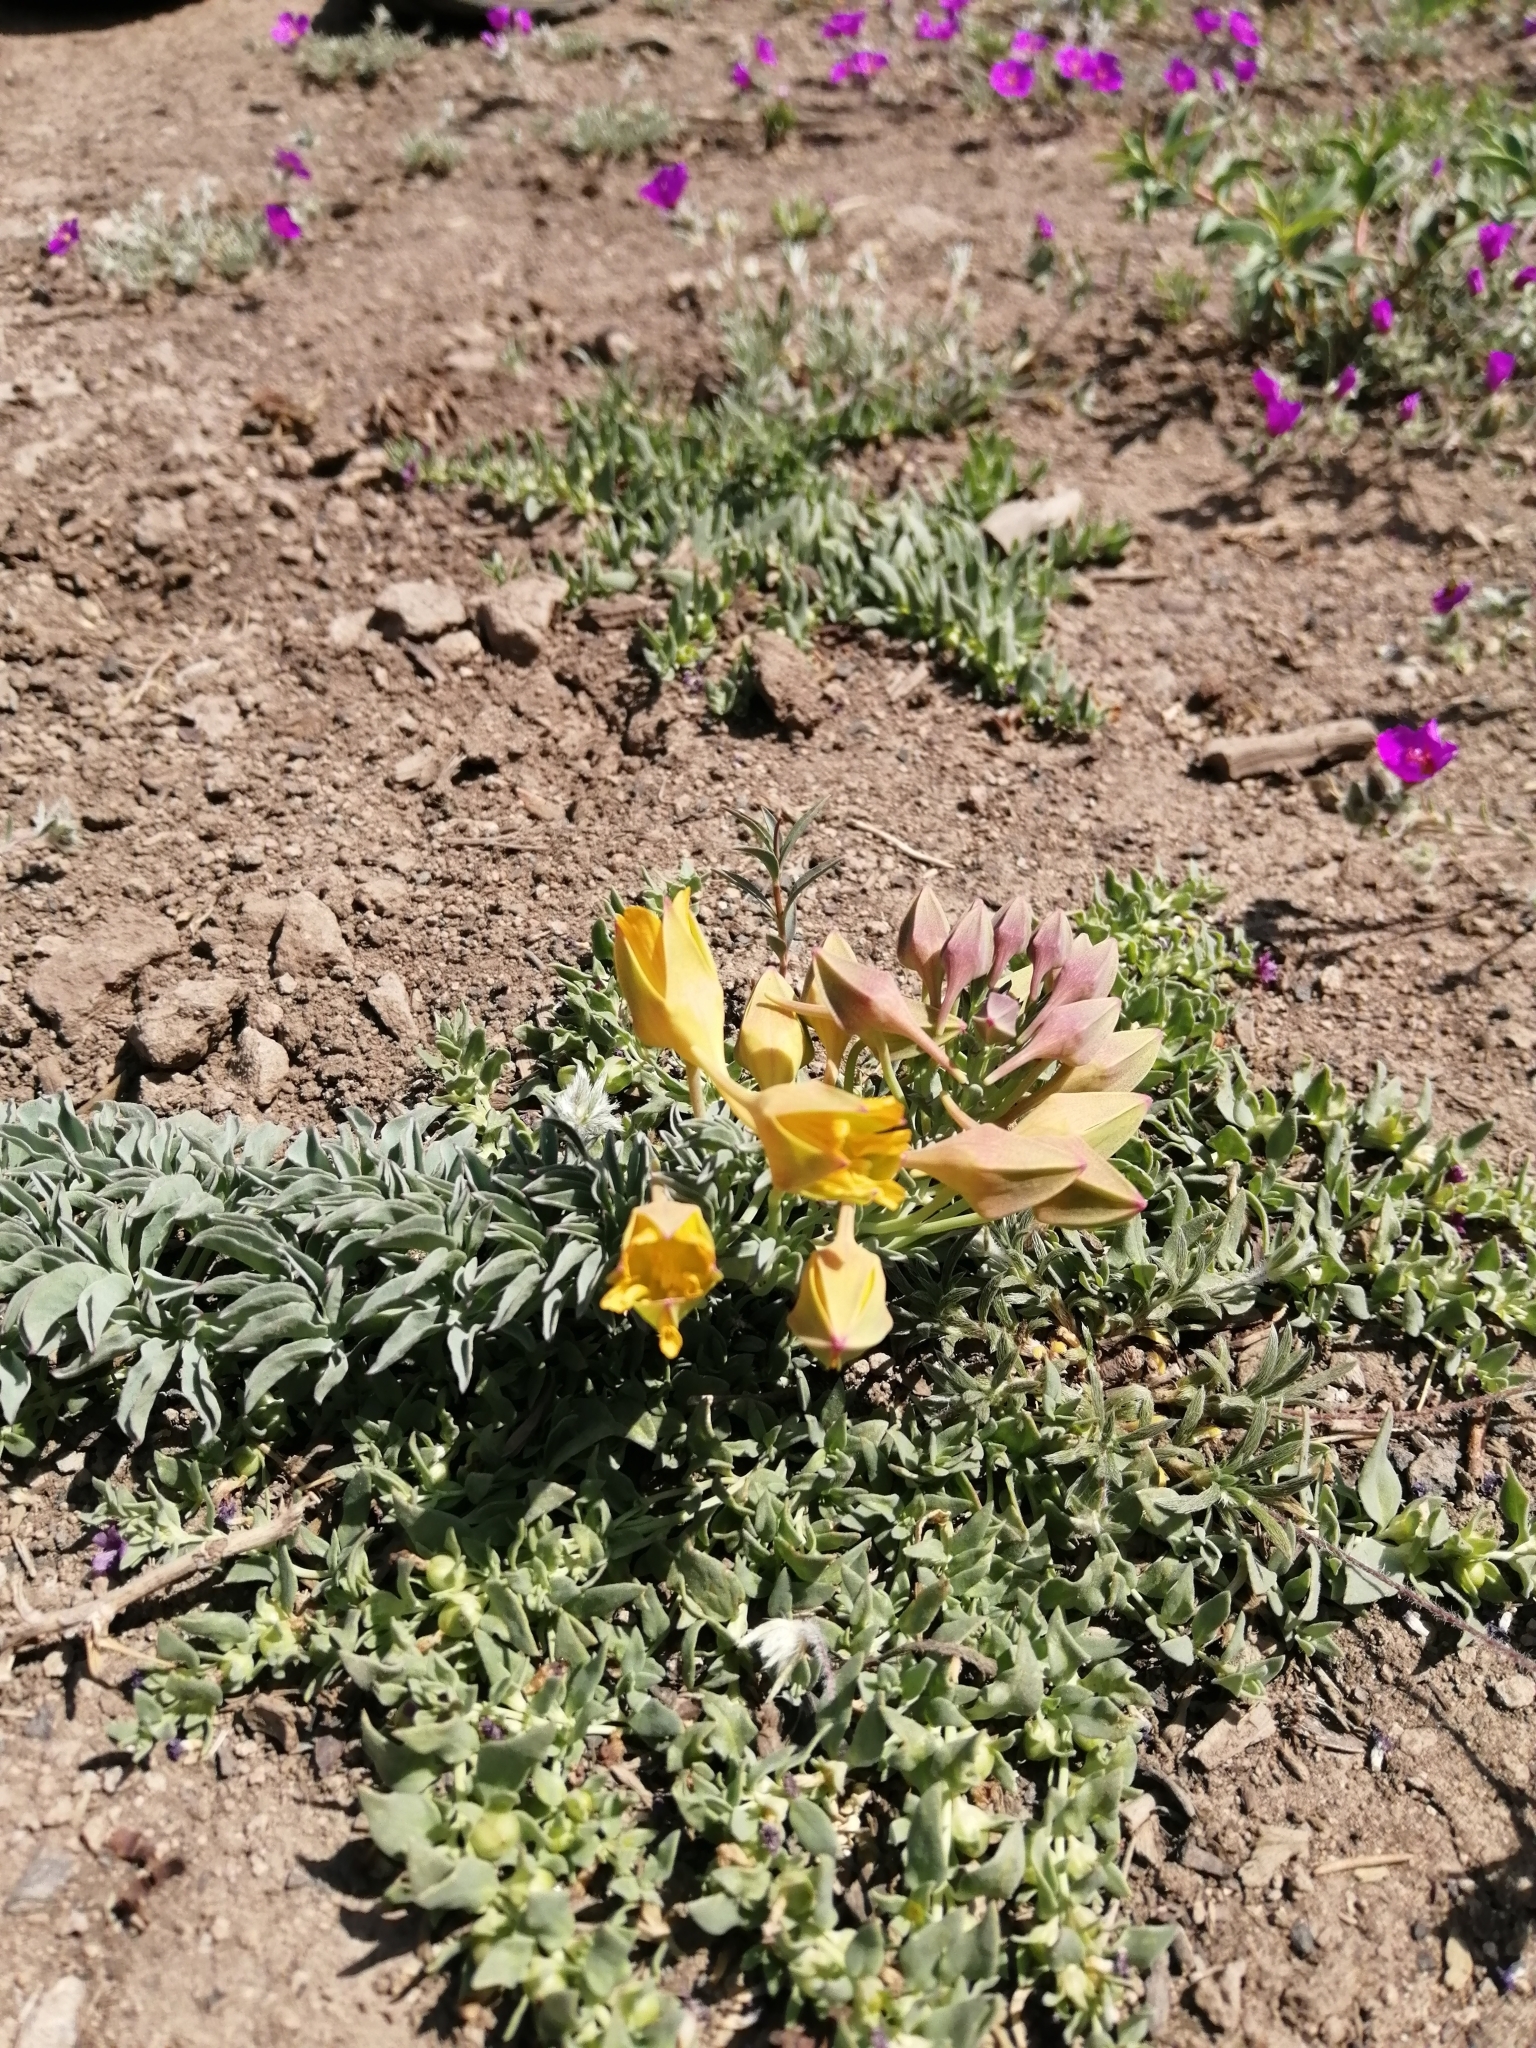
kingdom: Plantae
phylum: Tracheophyta
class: Magnoliopsida
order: Brassicales
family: Tropaeolaceae
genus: Tropaeolum
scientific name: Tropaeolum polyphyllum
